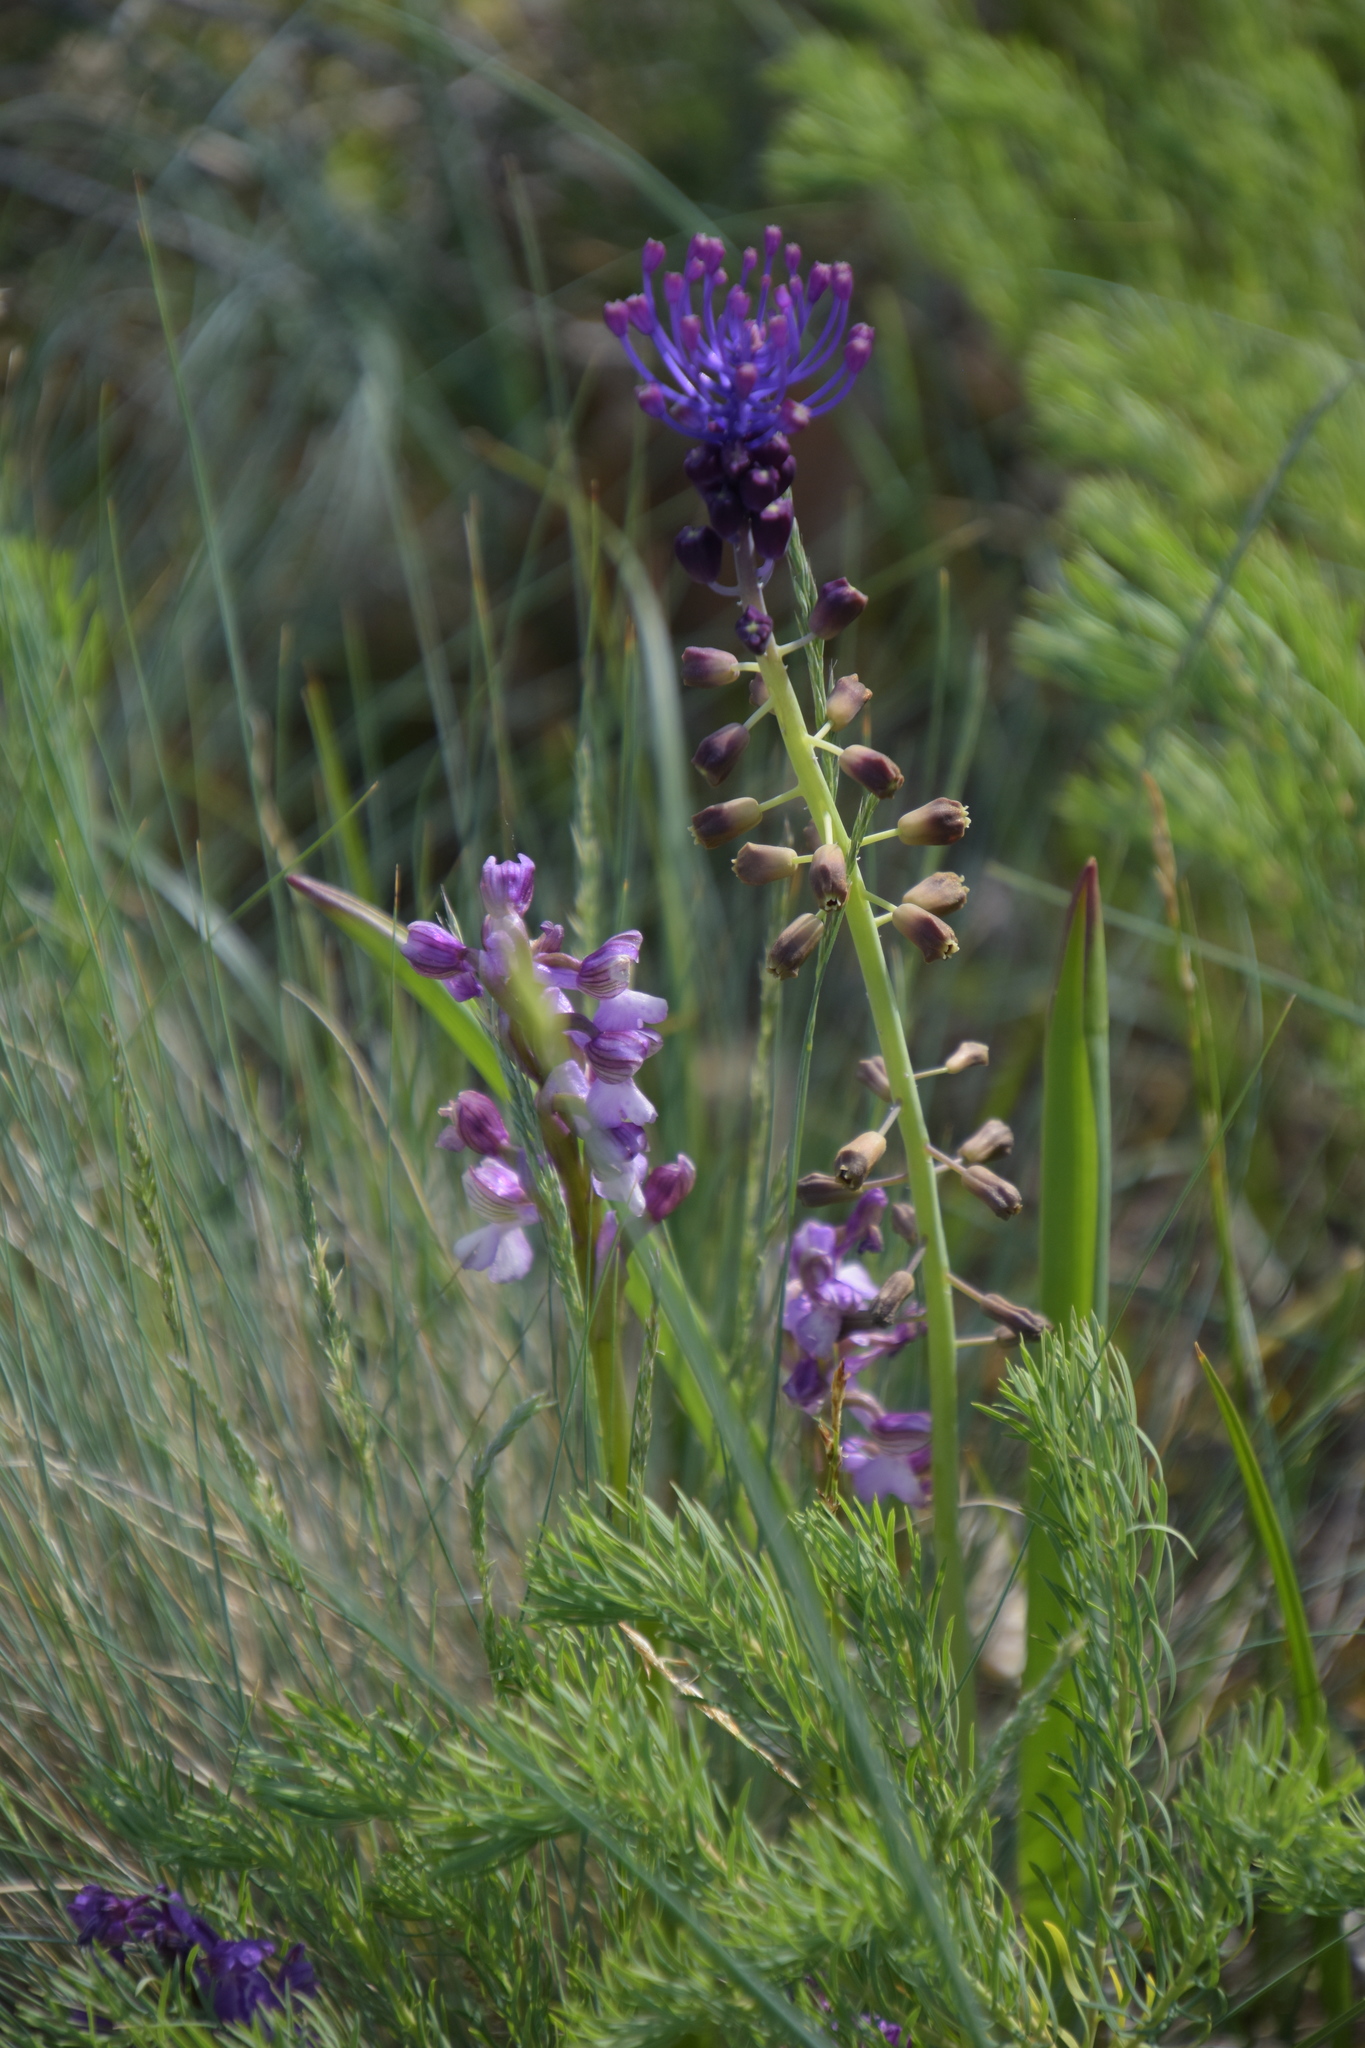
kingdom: Plantae
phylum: Tracheophyta
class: Liliopsida
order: Asparagales
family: Asparagaceae
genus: Muscari
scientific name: Muscari comosum
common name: Tassel hyacinth
